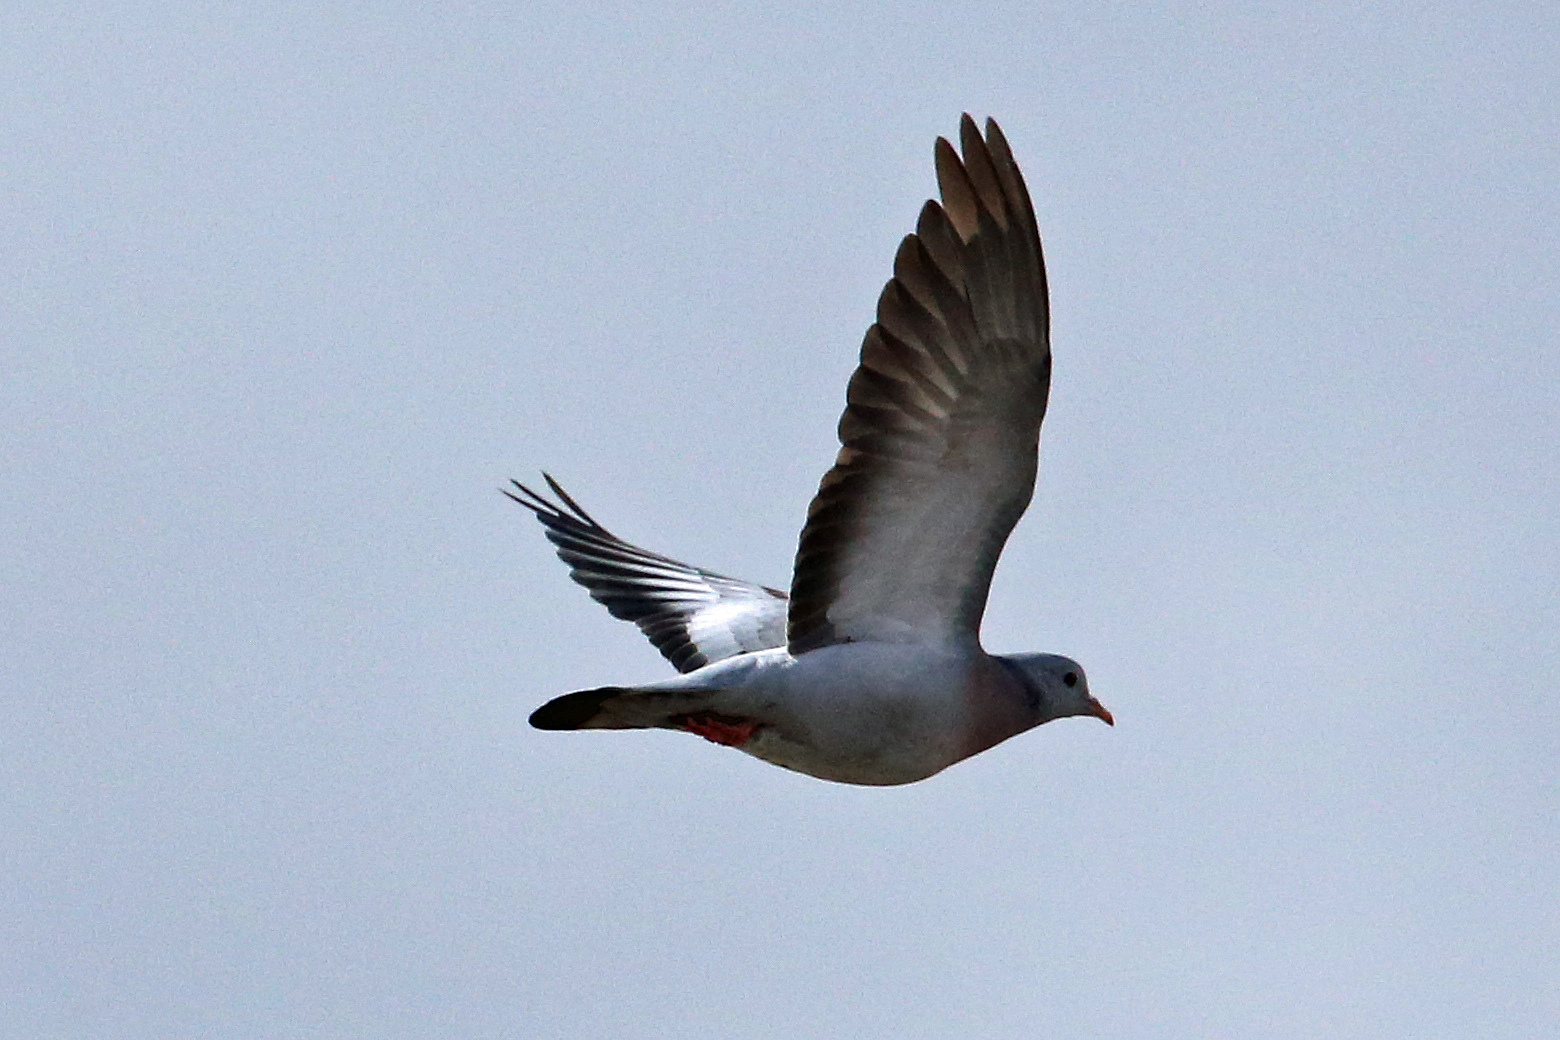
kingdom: Animalia
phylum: Chordata
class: Aves
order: Columbiformes
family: Columbidae
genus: Columba
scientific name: Columba oenas
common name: Stock dove
